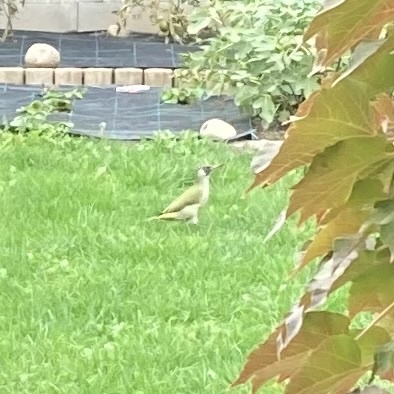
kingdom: Animalia
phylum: Chordata
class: Aves
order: Piciformes
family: Picidae
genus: Picus
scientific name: Picus viridis
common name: European green woodpecker
